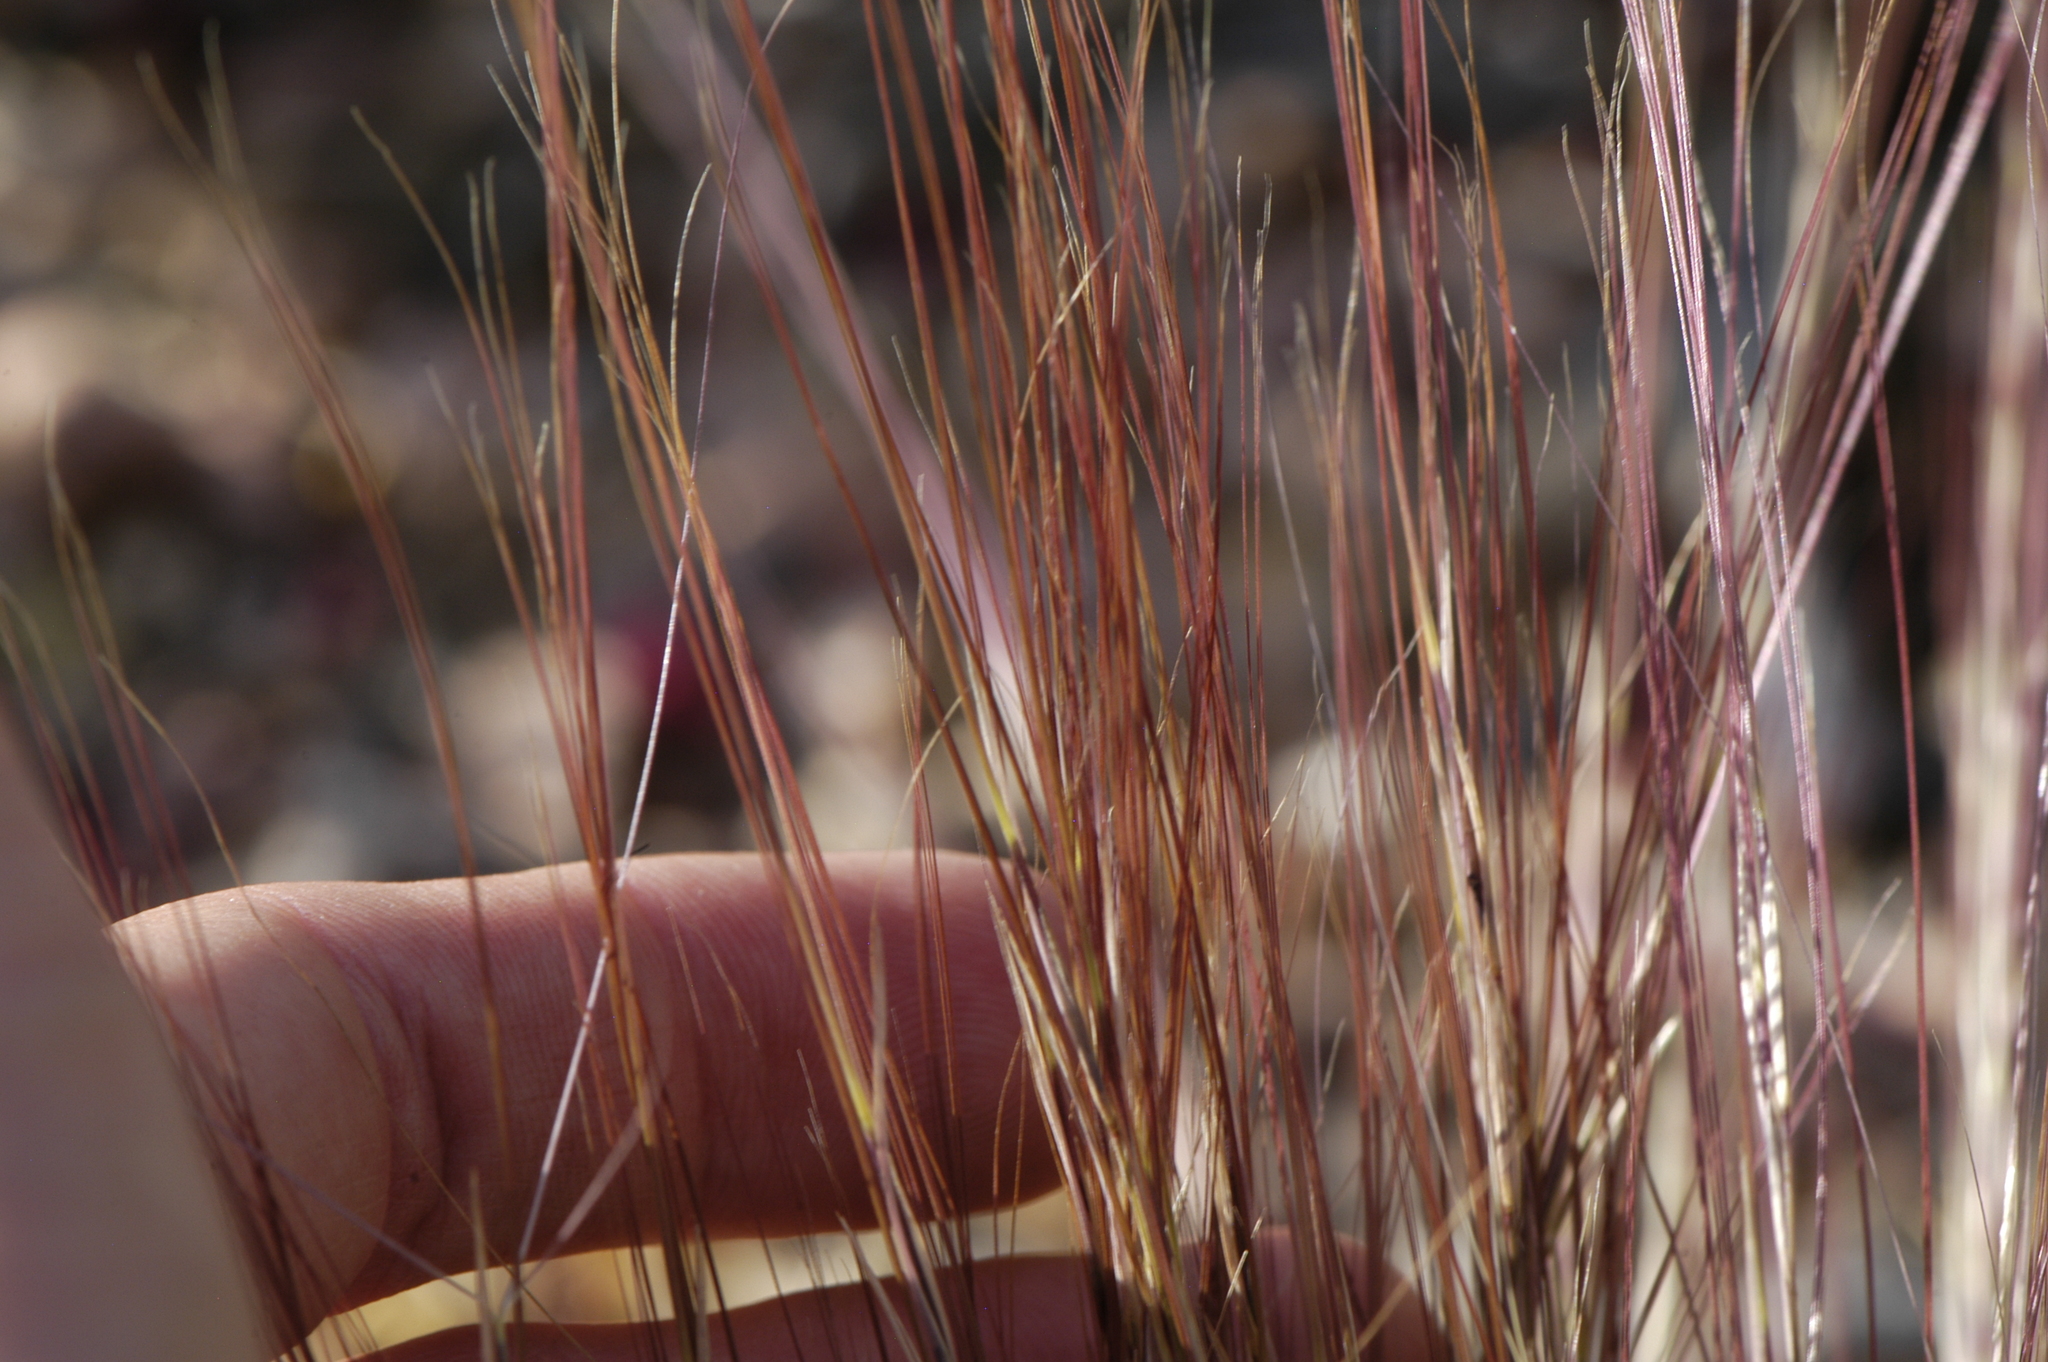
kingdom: Plantae
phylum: Tracheophyta
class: Liliopsida
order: Poales
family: Poaceae
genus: Aristida
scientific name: Aristida purpurea
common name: Purple threeawn
